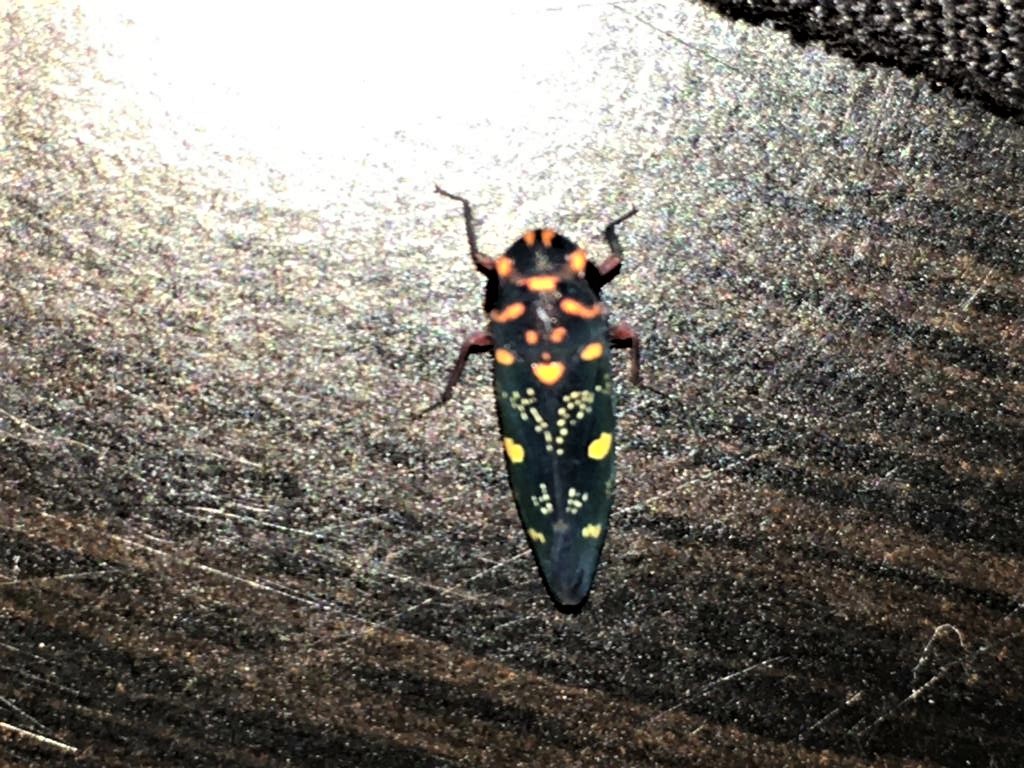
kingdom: Animalia
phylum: Arthropoda
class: Insecta
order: Hemiptera
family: Cicadellidae
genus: Oragua
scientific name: Oragua variolosa
